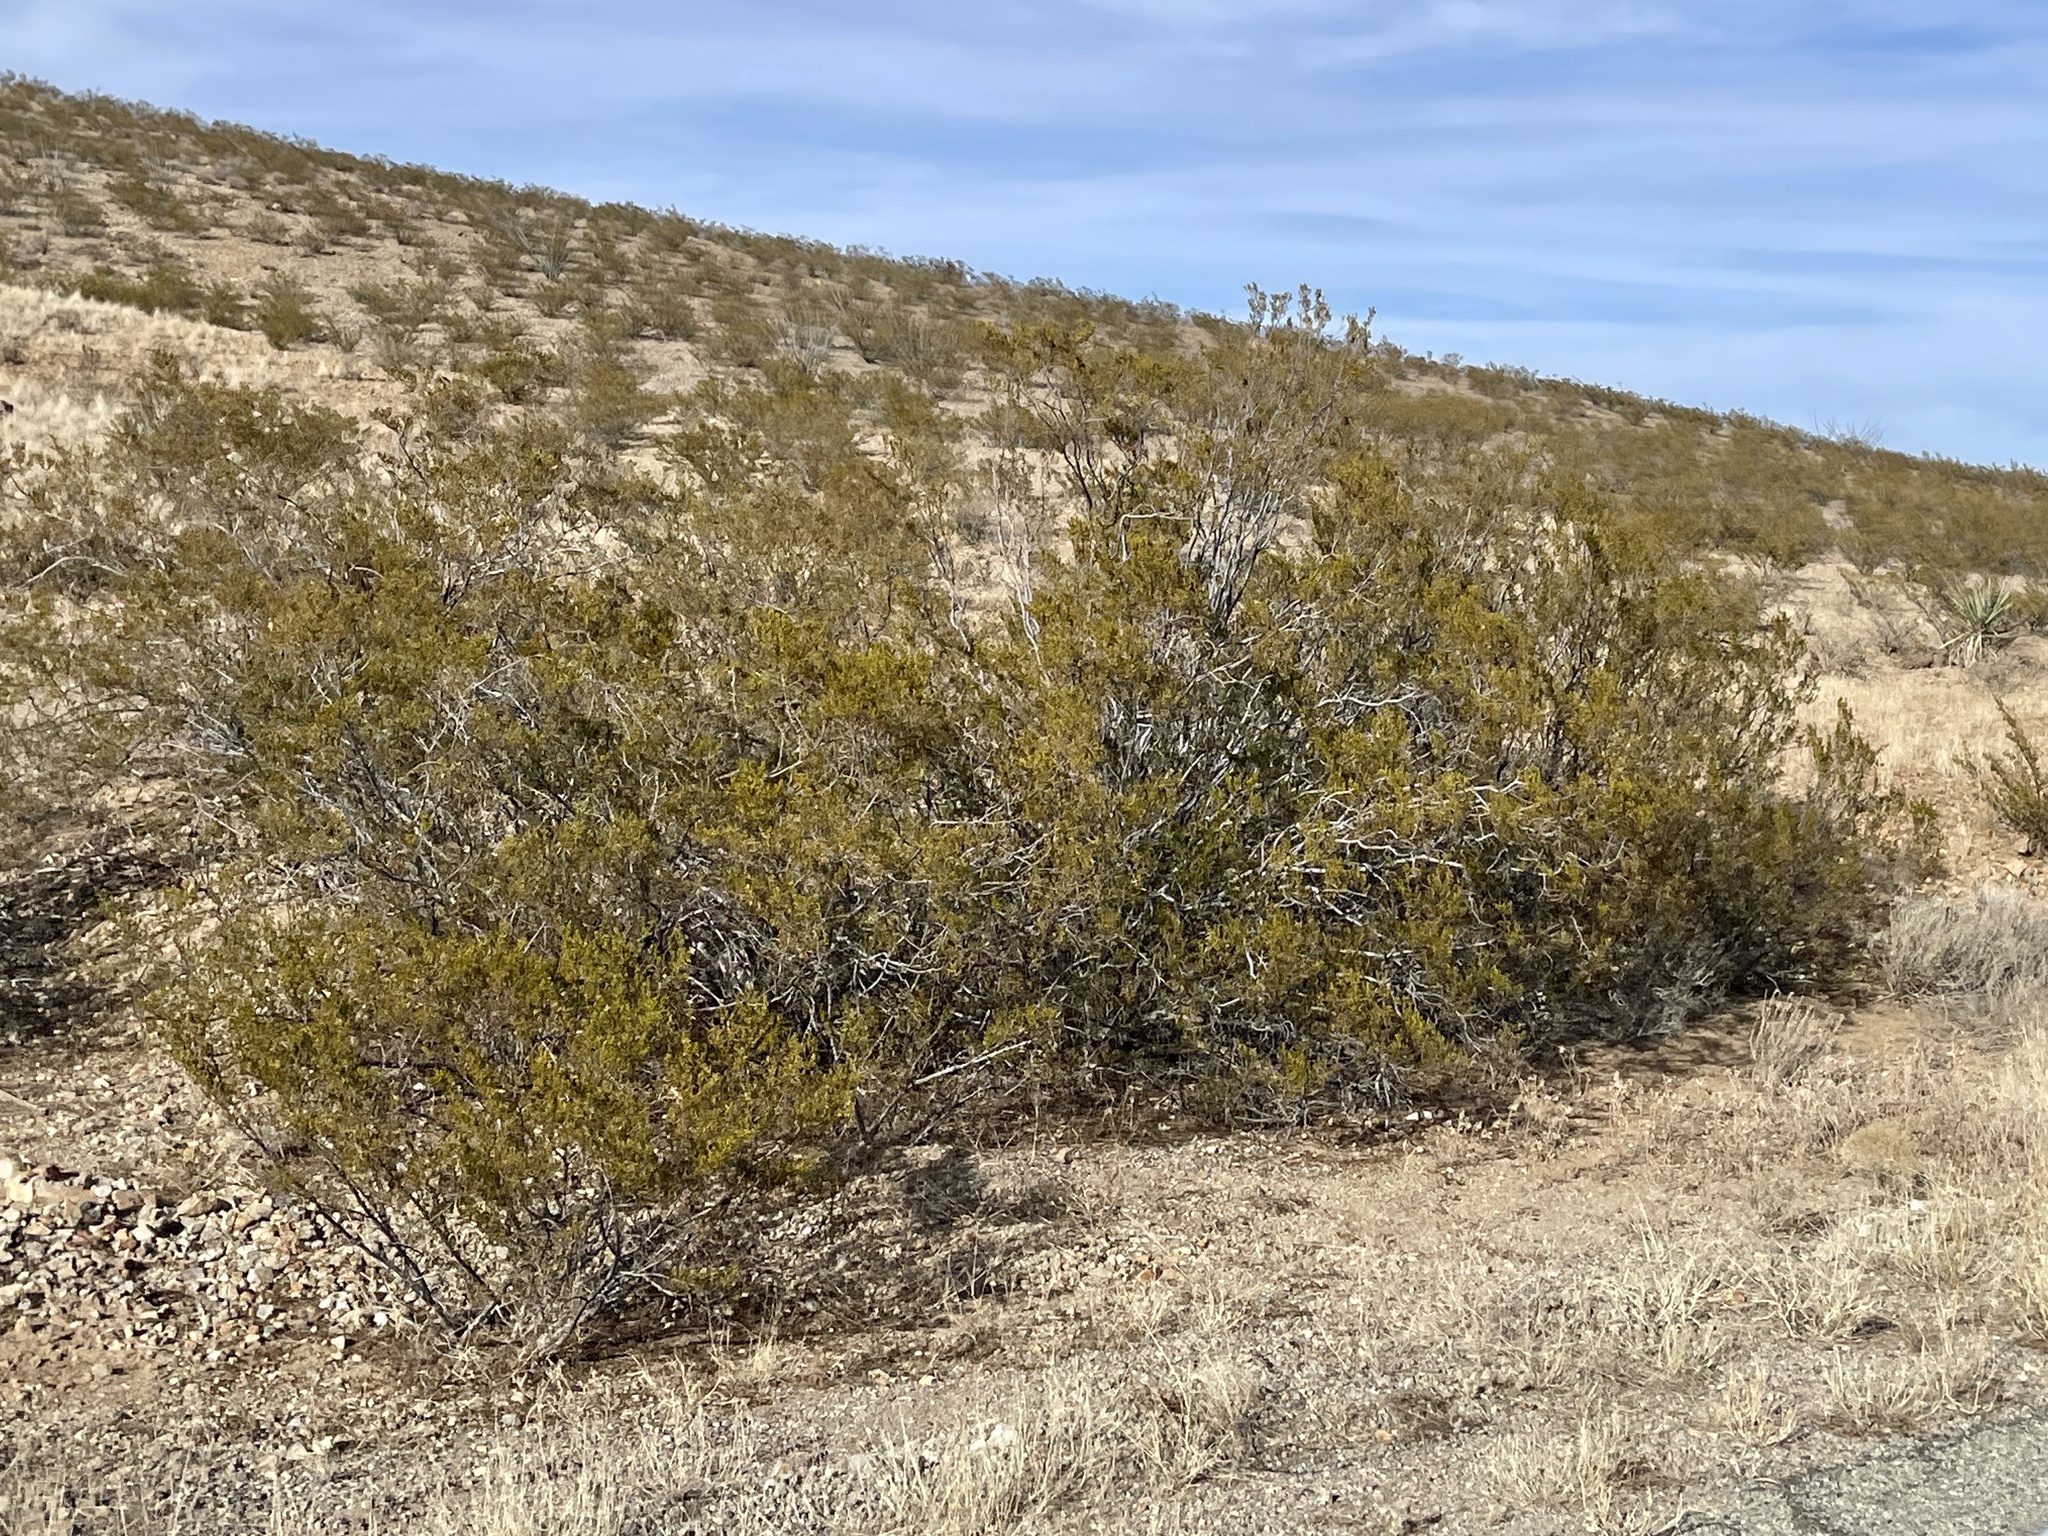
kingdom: Plantae
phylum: Tracheophyta
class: Magnoliopsida
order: Zygophyllales
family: Zygophyllaceae
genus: Larrea
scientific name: Larrea tridentata
